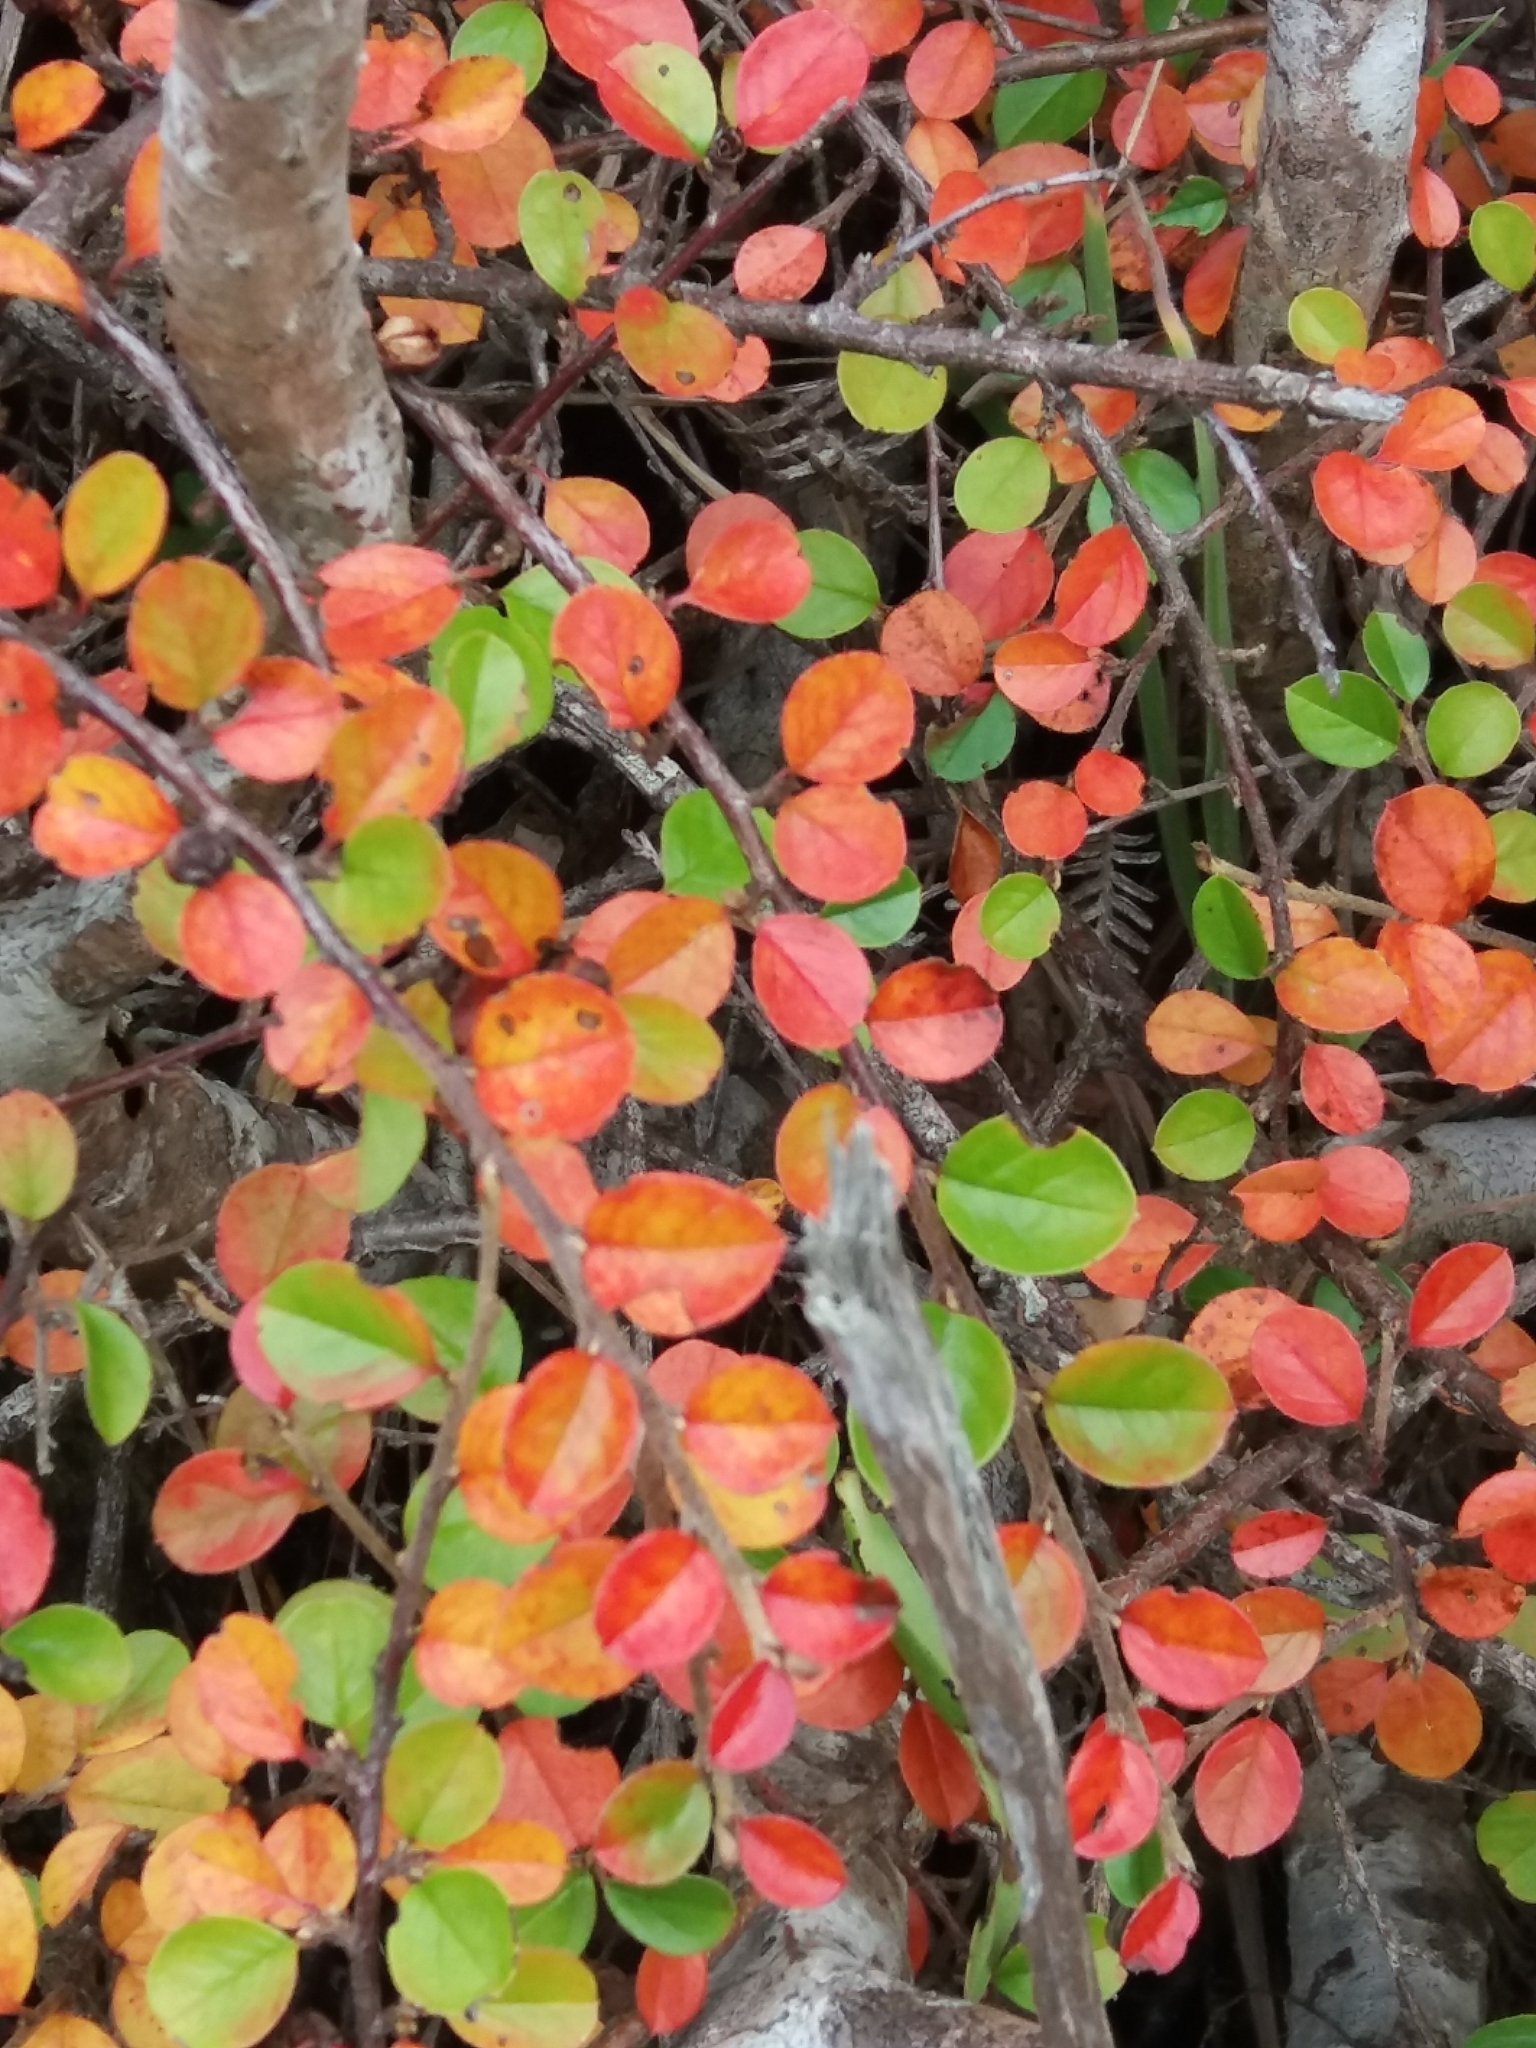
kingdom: Plantae
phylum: Tracheophyta
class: Magnoliopsida
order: Rosales
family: Rosaceae
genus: Cotoneaster
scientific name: Cotoneaster hjelmqvistii
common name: Hjelmqvist's cotoneaster
